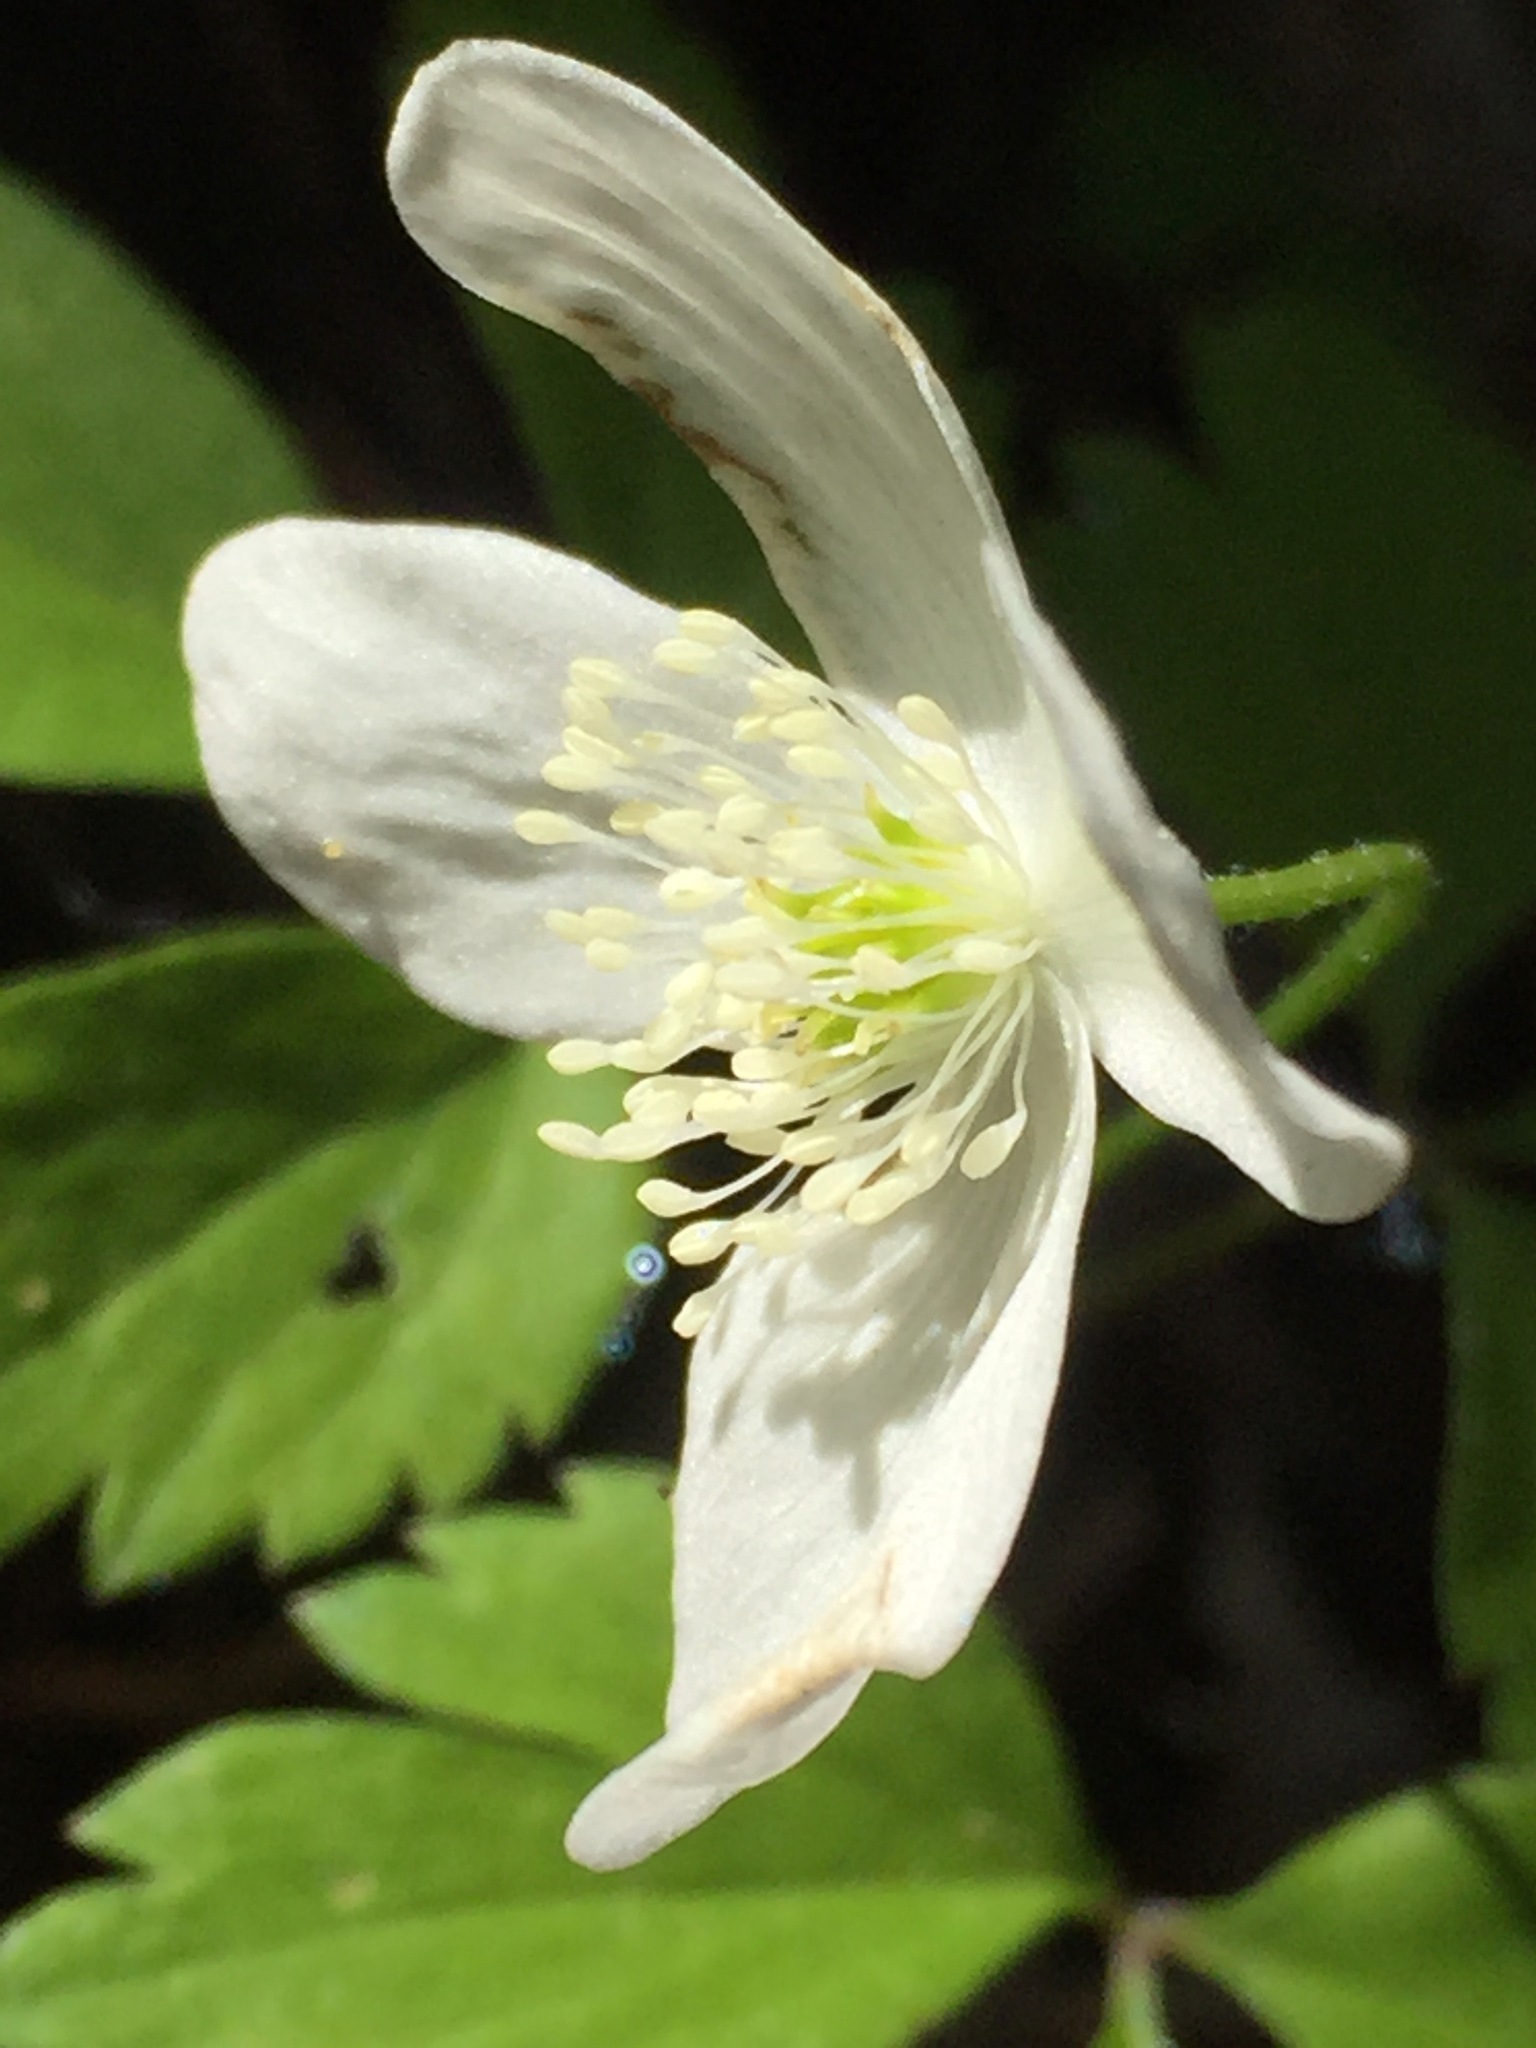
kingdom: Plantae
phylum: Tracheophyta
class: Magnoliopsida
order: Ranunculales
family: Ranunculaceae
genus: Anemone
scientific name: Anemone quinquefolia
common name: Wood anemone
